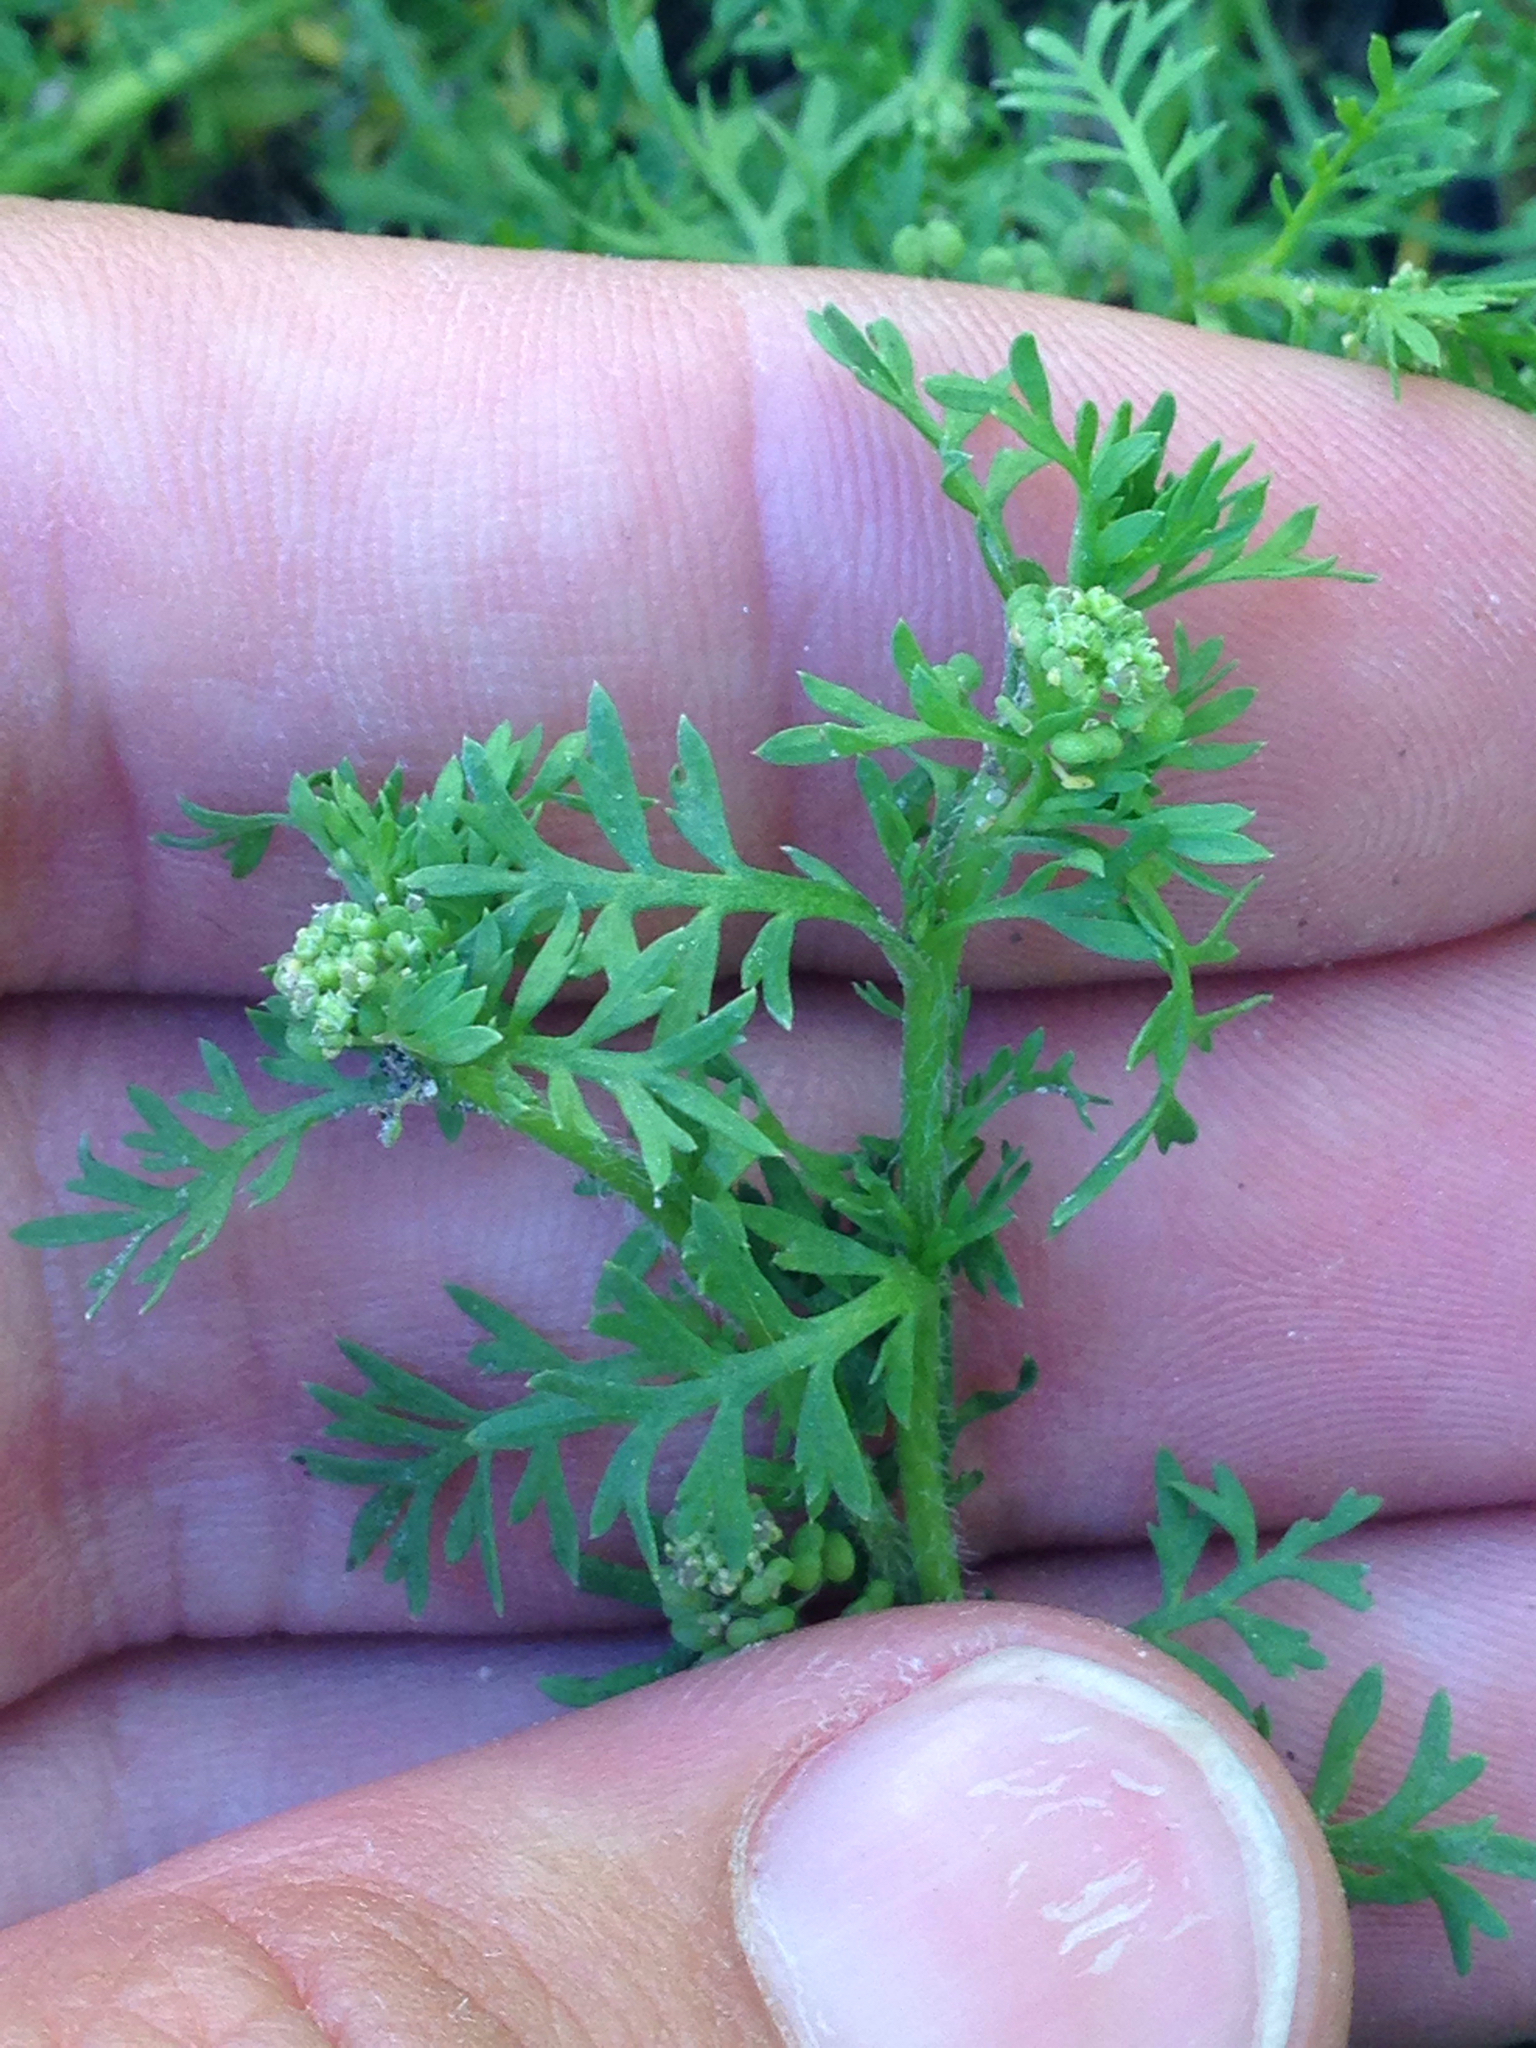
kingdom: Plantae
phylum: Tracheophyta
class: Magnoliopsida
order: Brassicales
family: Brassicaceae
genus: Lepidium
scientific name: Lepidium didymum
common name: Lesser swinecress
